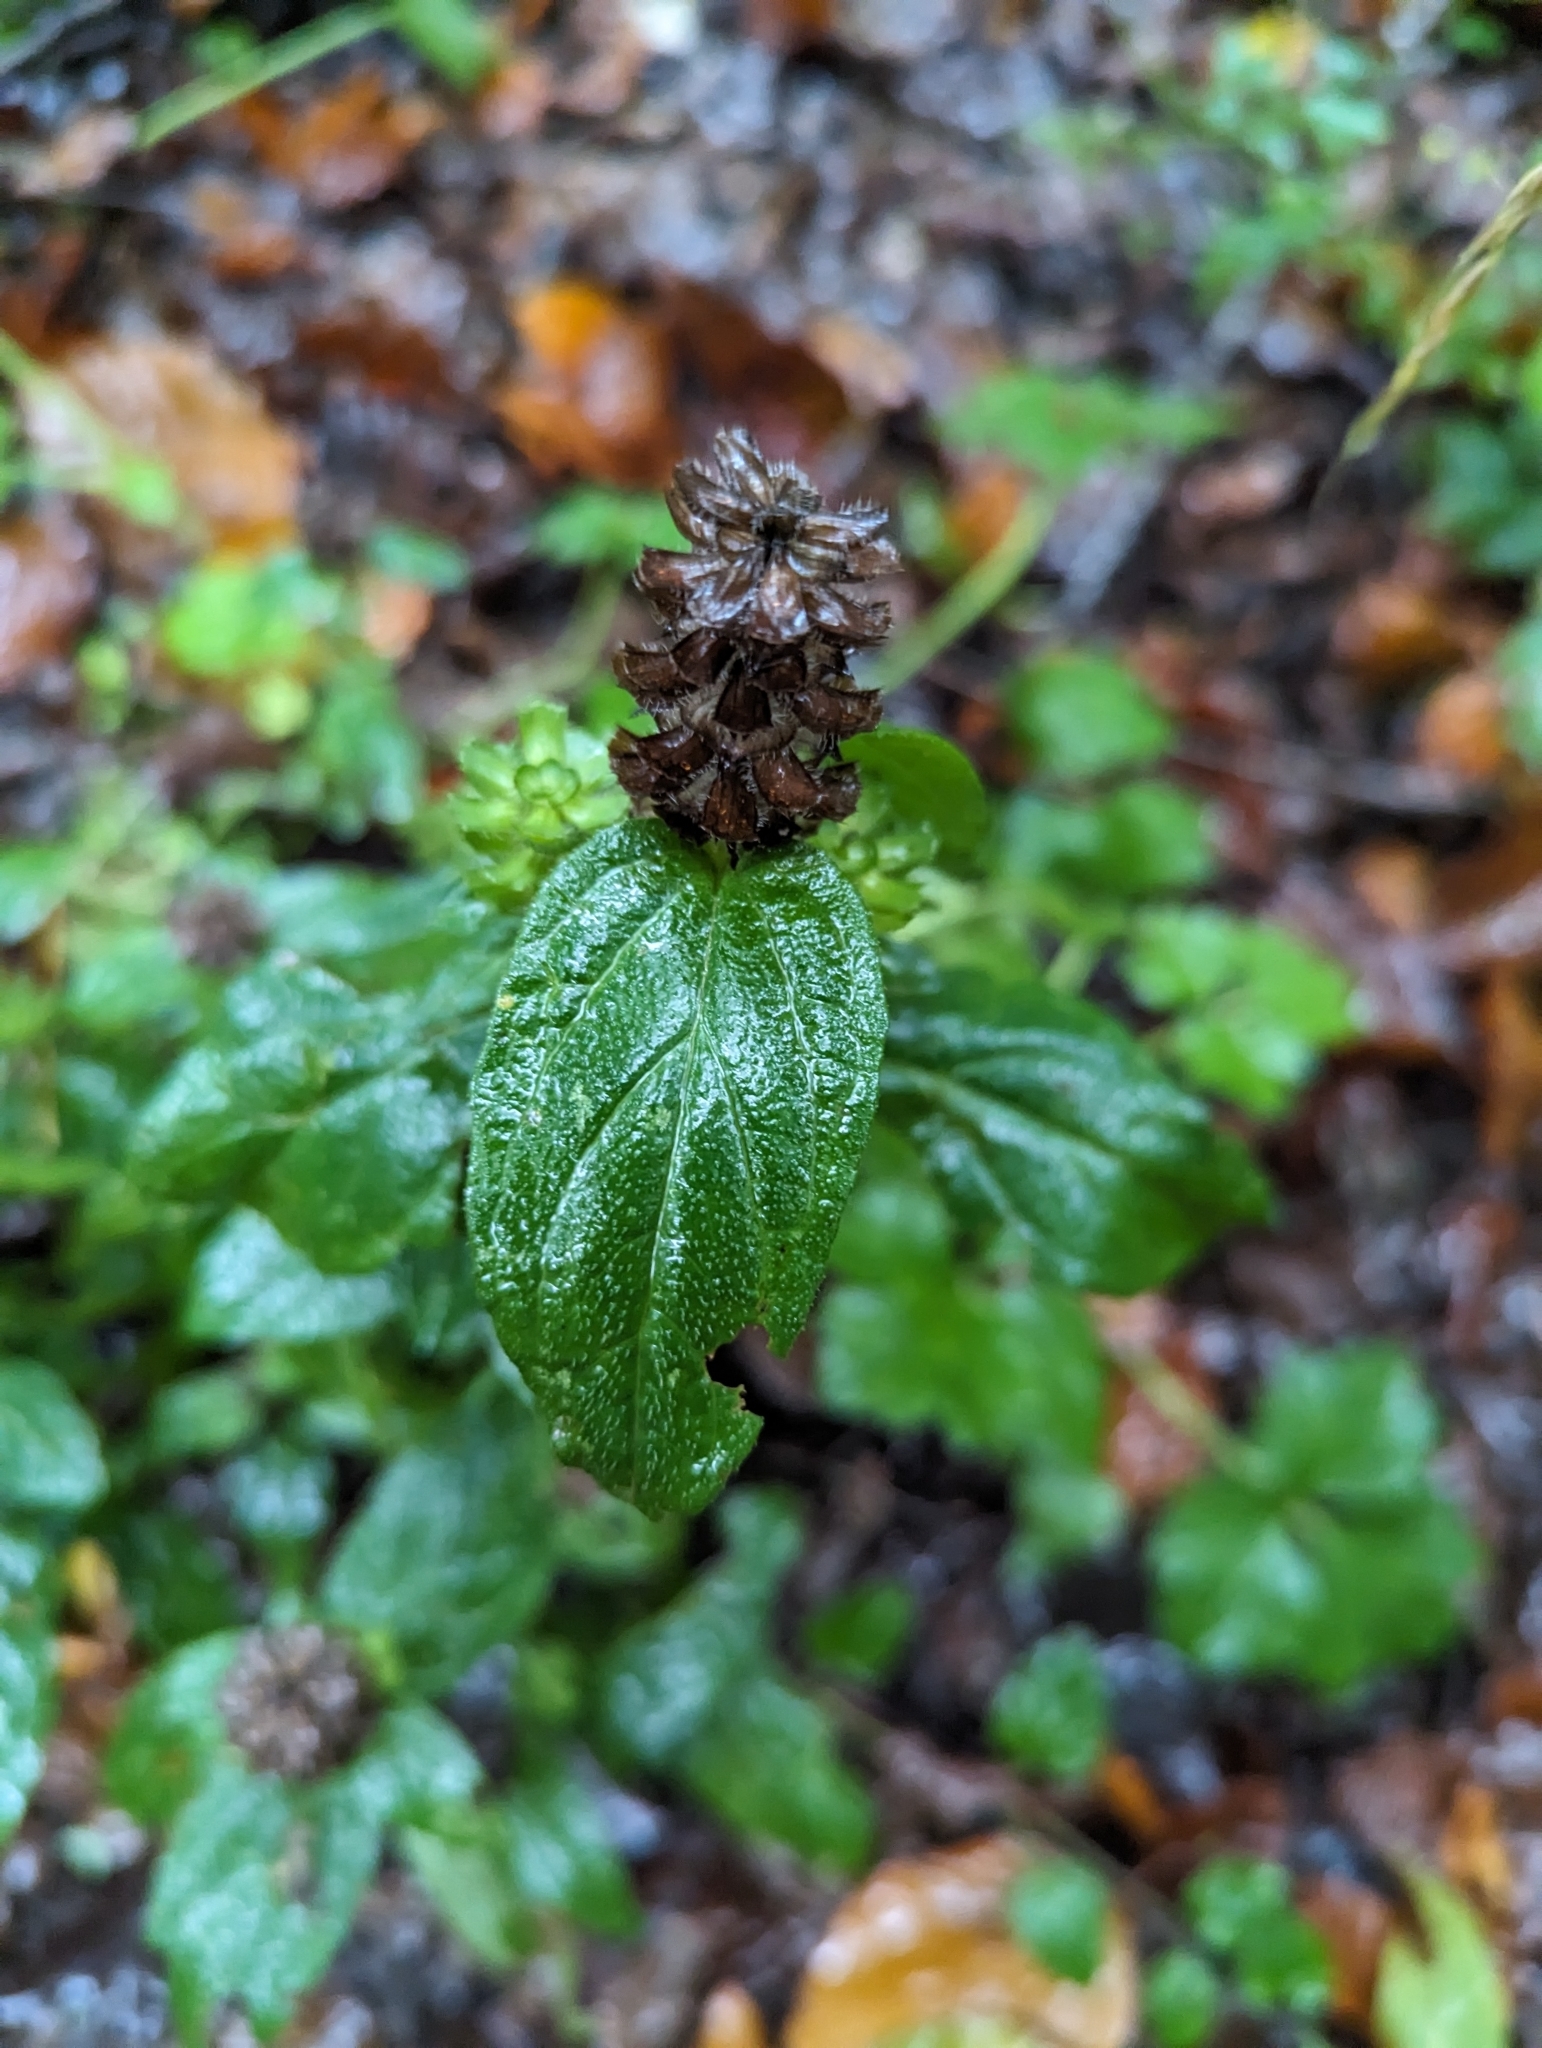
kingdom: Plantae
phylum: Tracheophyta
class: Magnoliopsida
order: Lamiales
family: Lamiaceae
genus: Prunella
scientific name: Prunella vulgaris
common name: Heal-all
